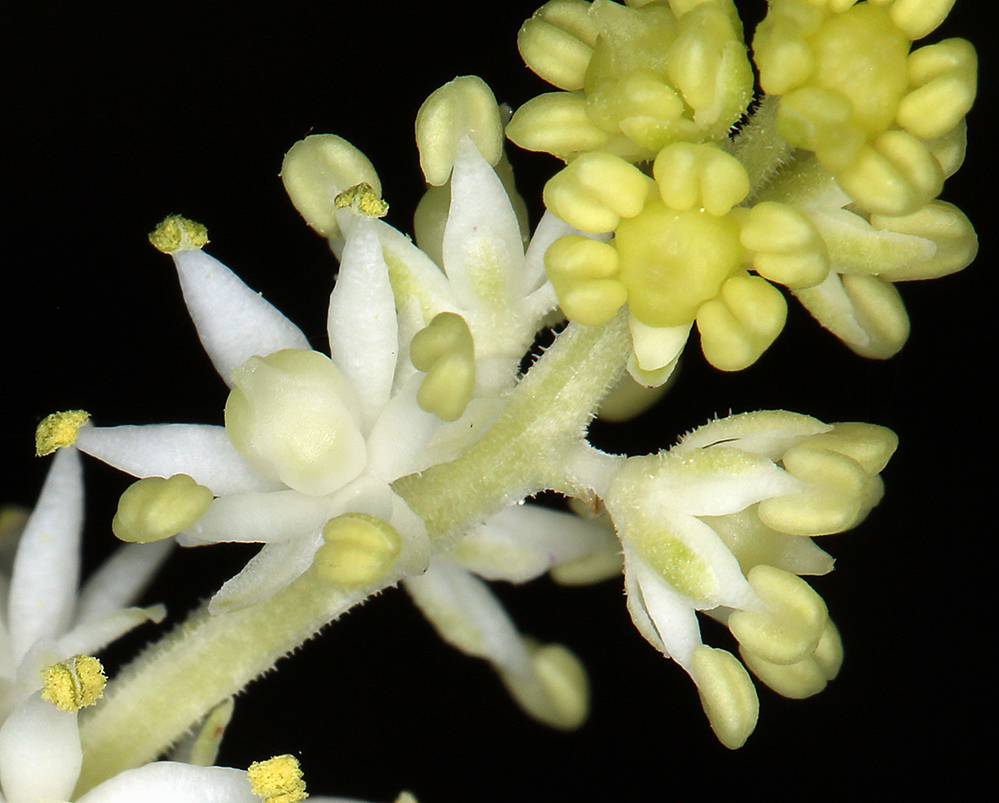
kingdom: Plantae
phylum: Tracheophyta
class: Liliopsida
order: Asparagales
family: Asparagaceae
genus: Maianthemum
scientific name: Maianthemum racemosum
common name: False spikenard
